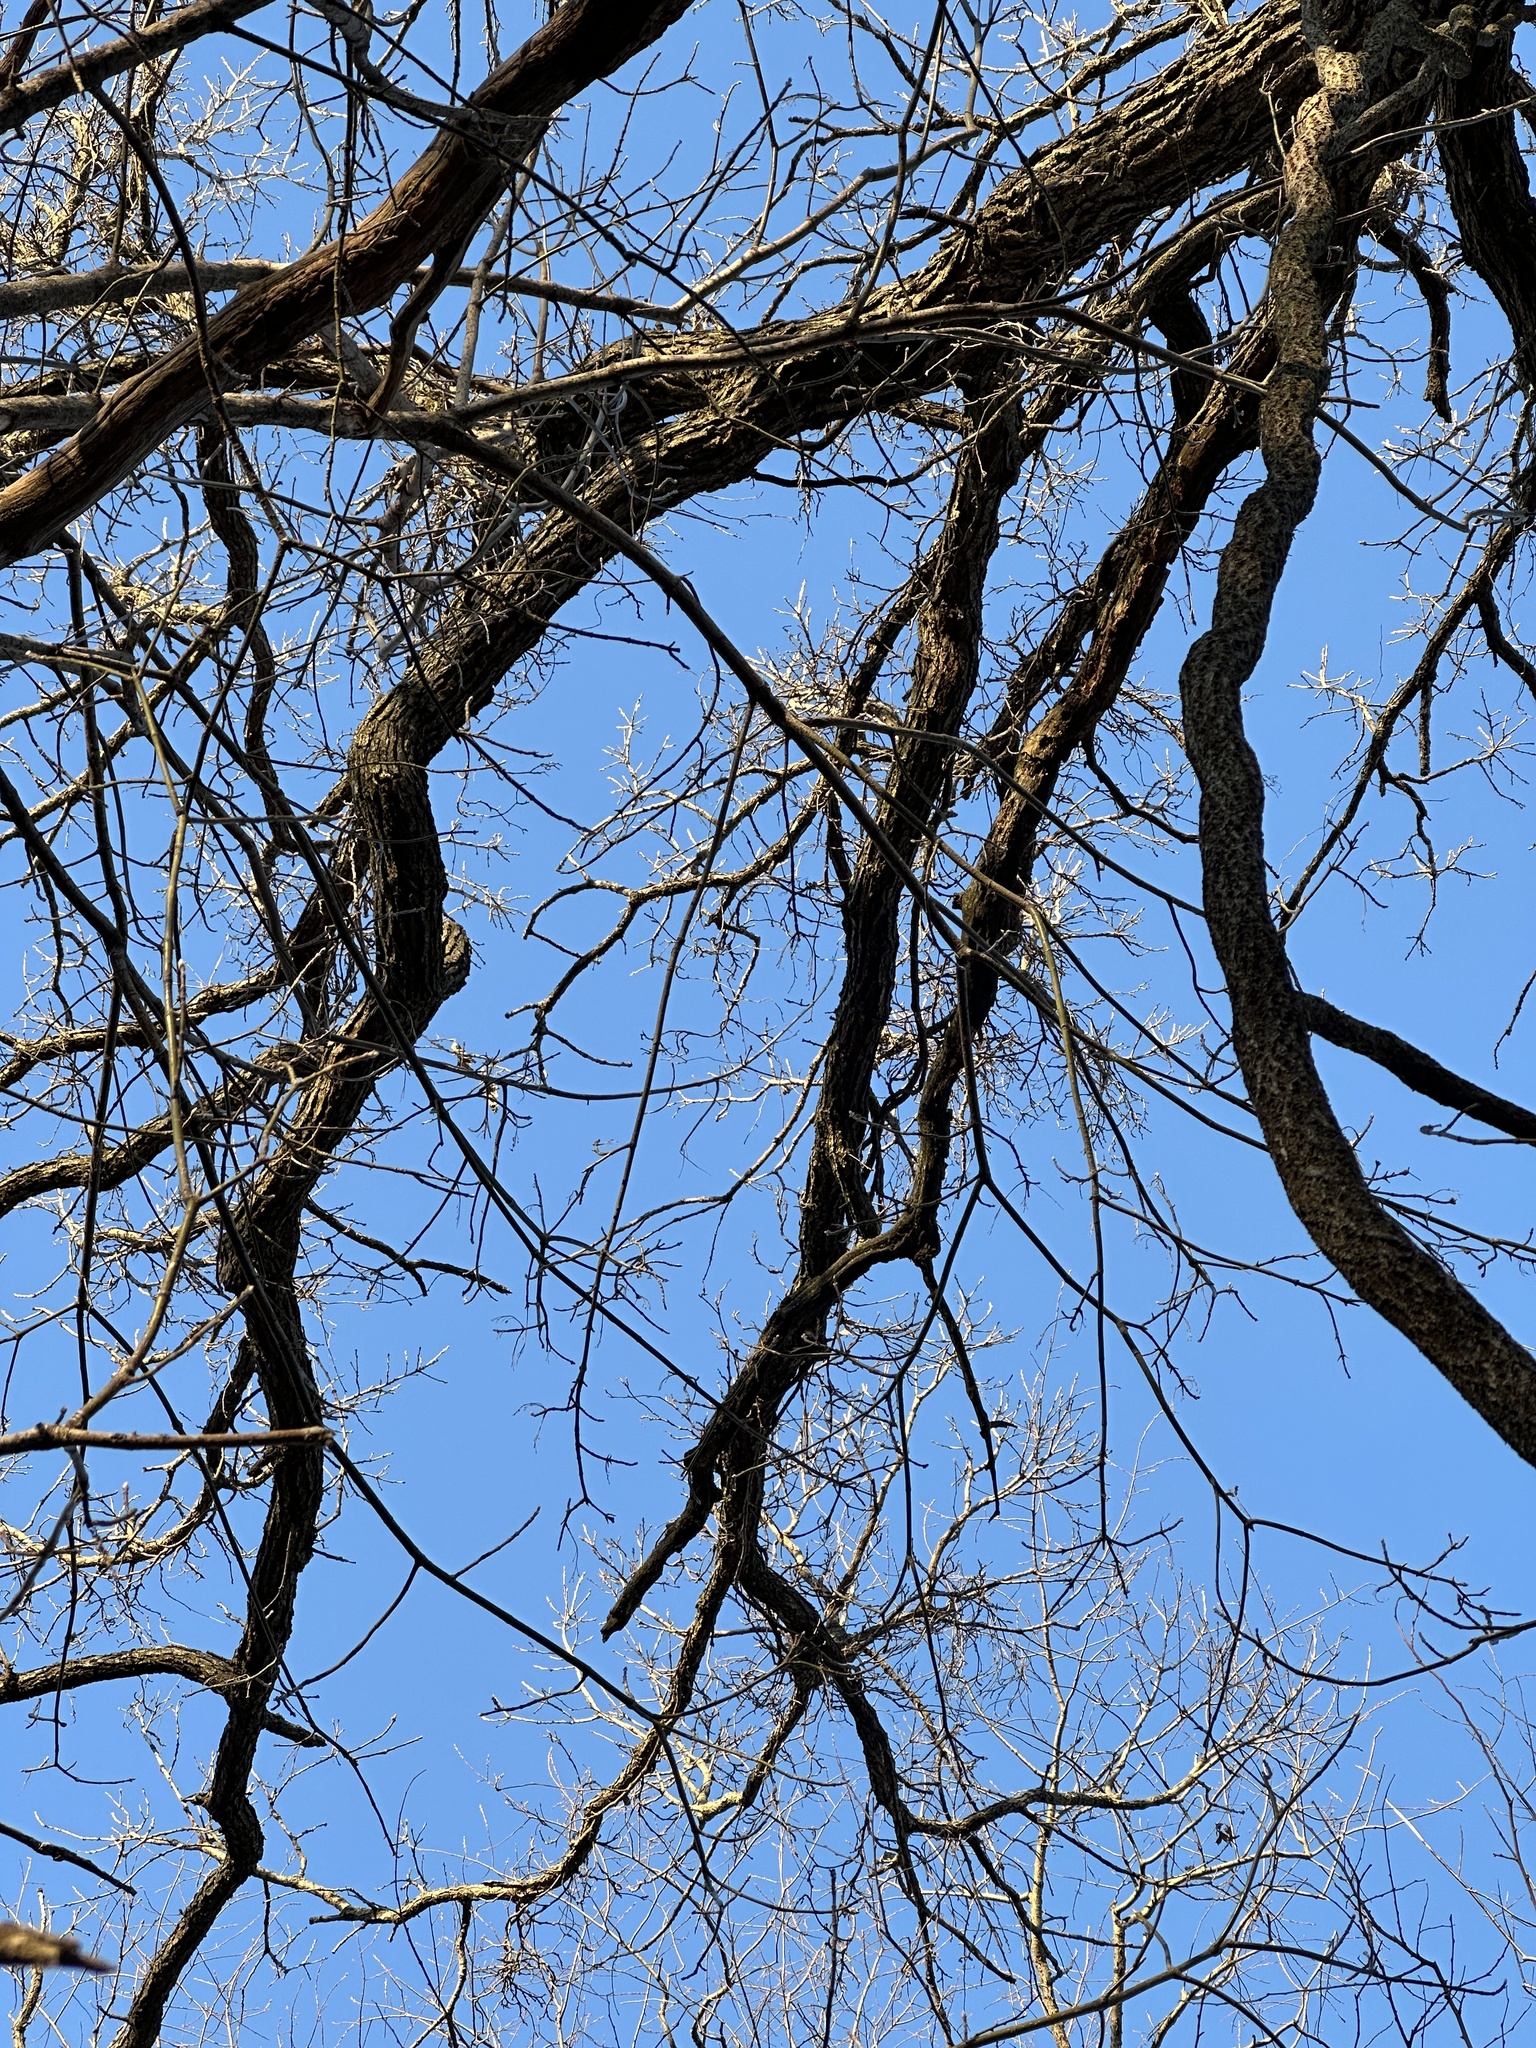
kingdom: Plantae
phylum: Tracheophyta
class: Magnoliopsida
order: Sapindales
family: Anacardiaceae
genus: Toxicodendron
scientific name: Toxicodendron radicans
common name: Poison ivy
